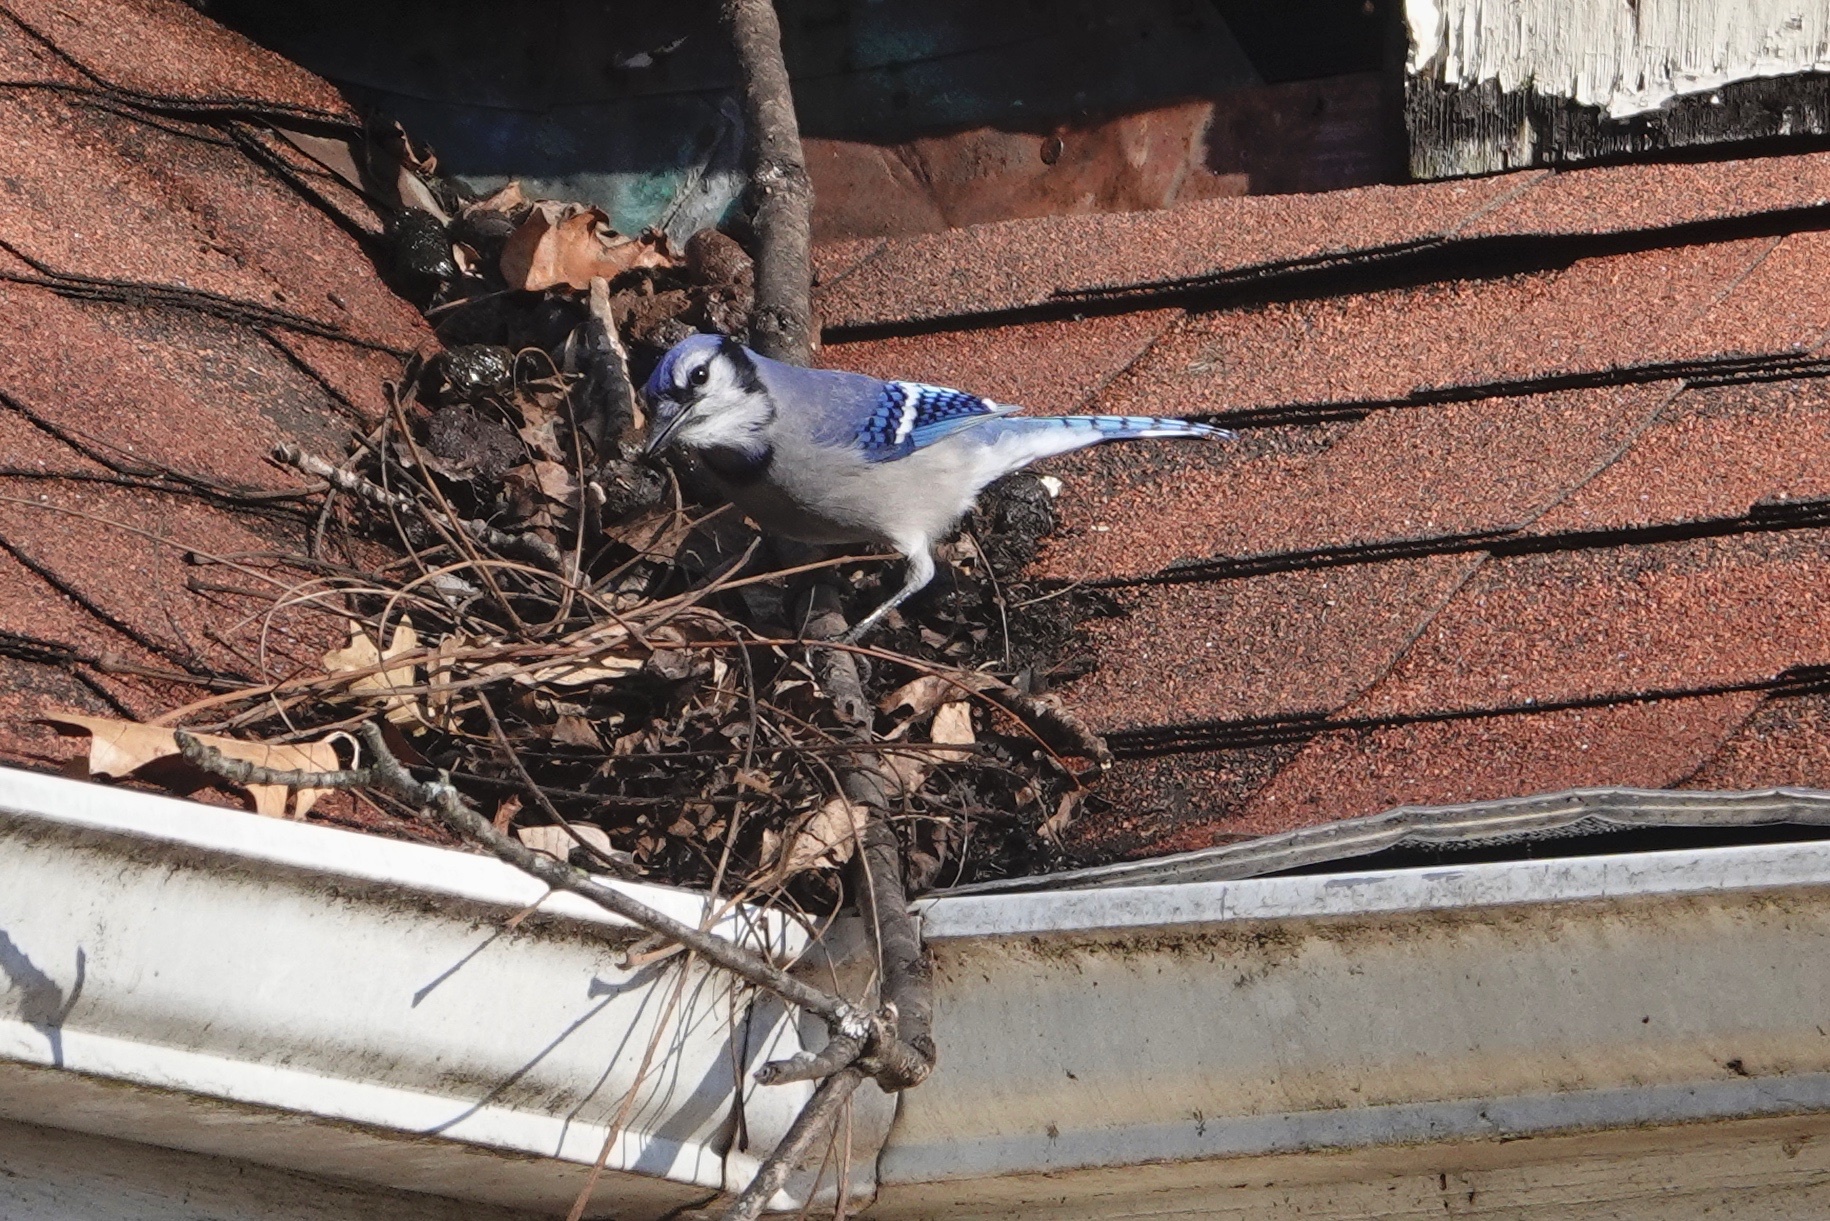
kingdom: Animalia
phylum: Chordata
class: Aves
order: Passeriformes
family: Corvidae
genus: Cyanocitta
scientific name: Cyanocitta cristata
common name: Blue jay
